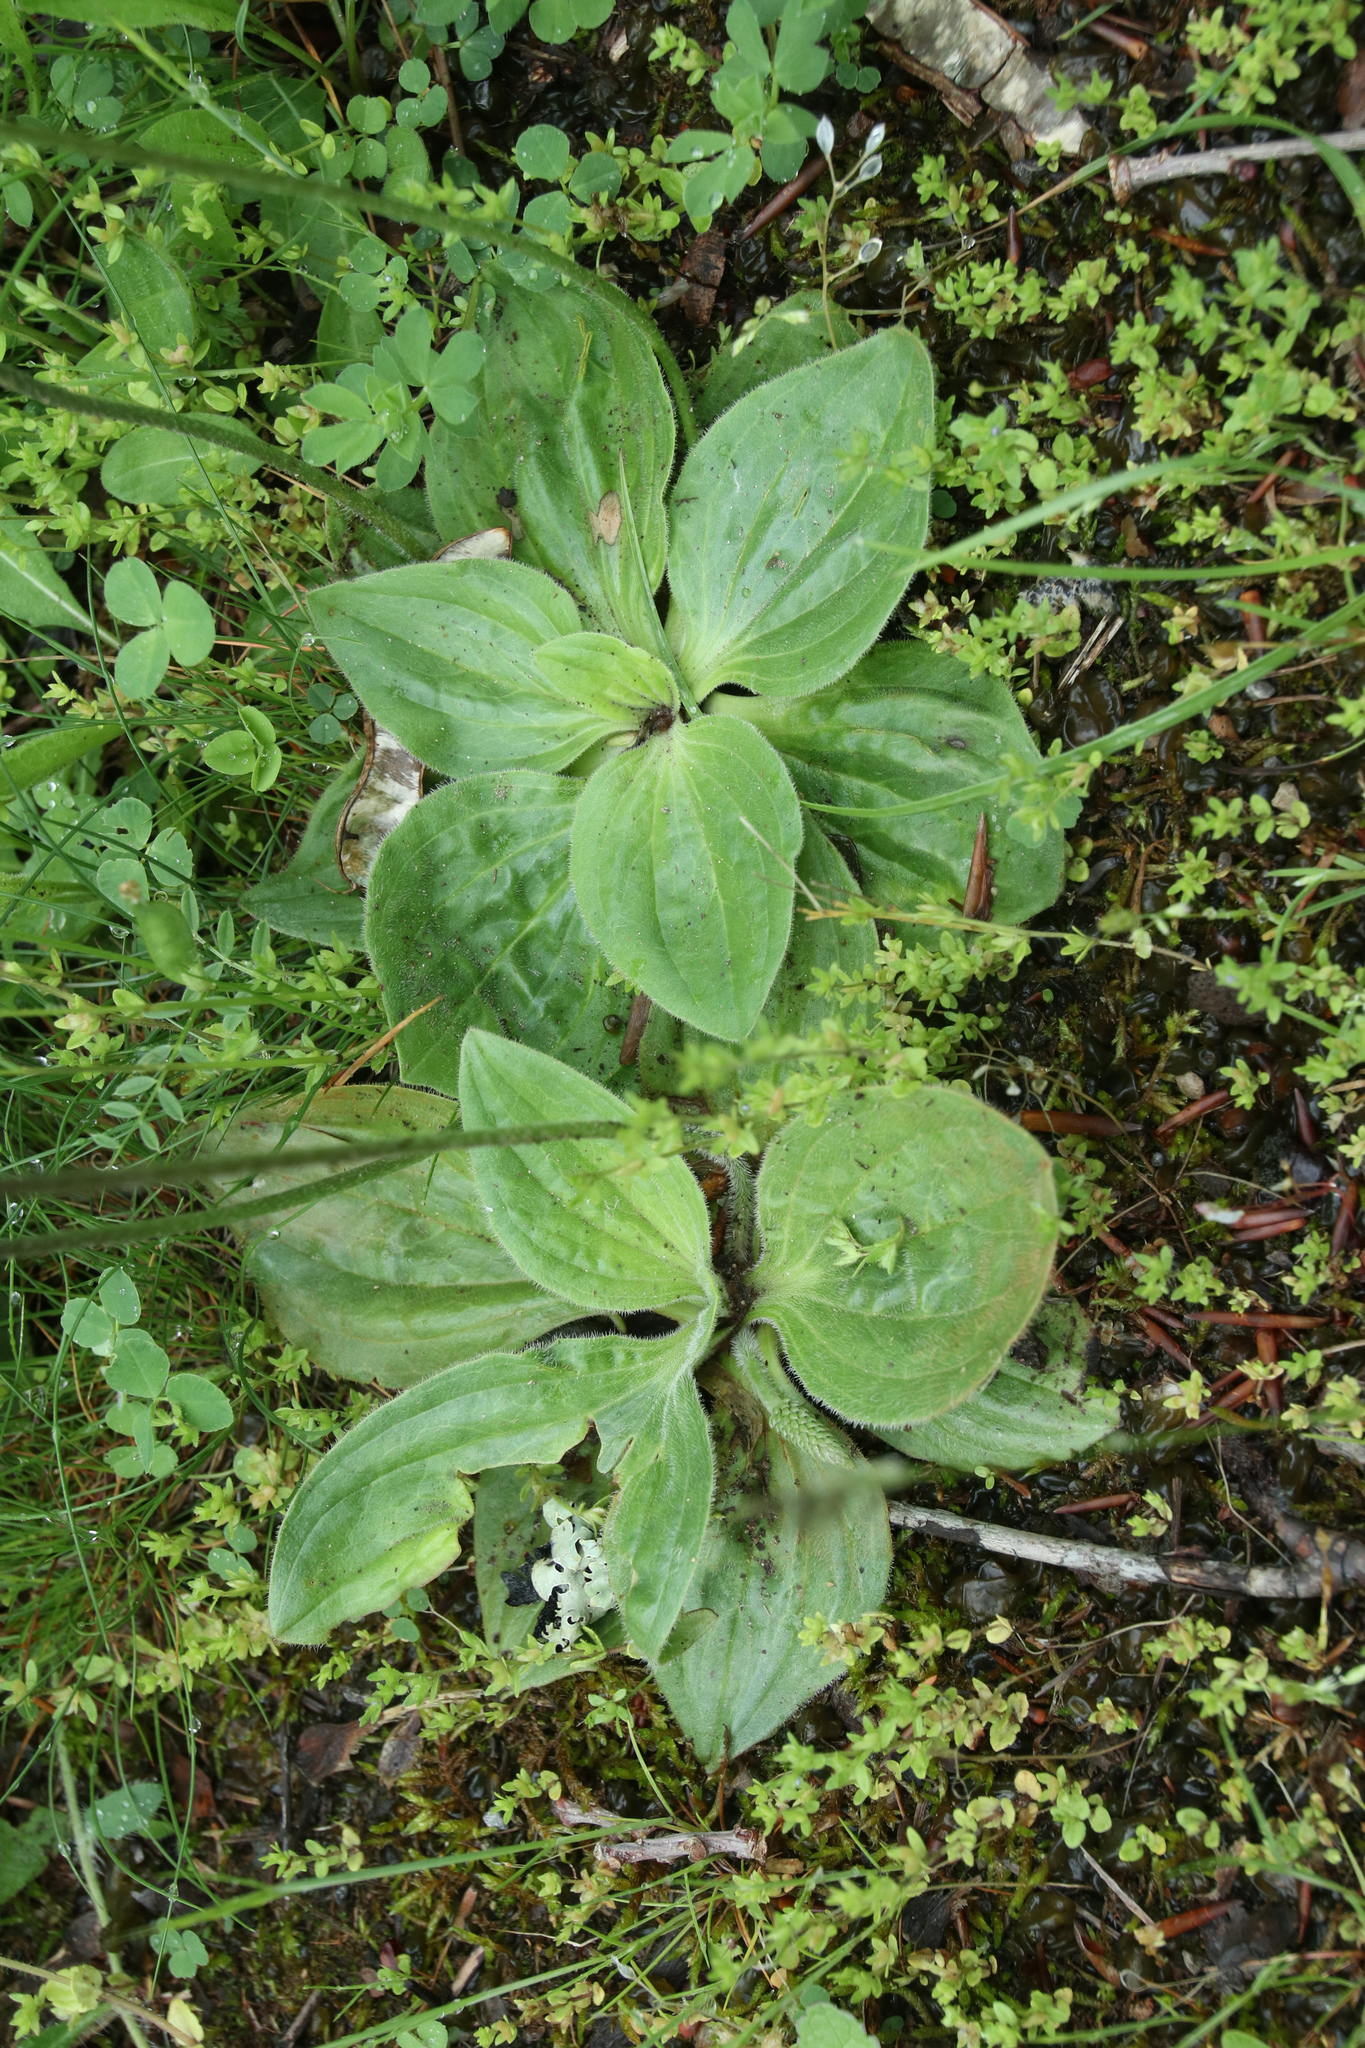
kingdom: Plantae
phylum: Tracheophyta
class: Magnoliopsida
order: Lamiales
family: Plantaginaceae
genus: Plantago
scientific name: Plantago media
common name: Hoary plantain
